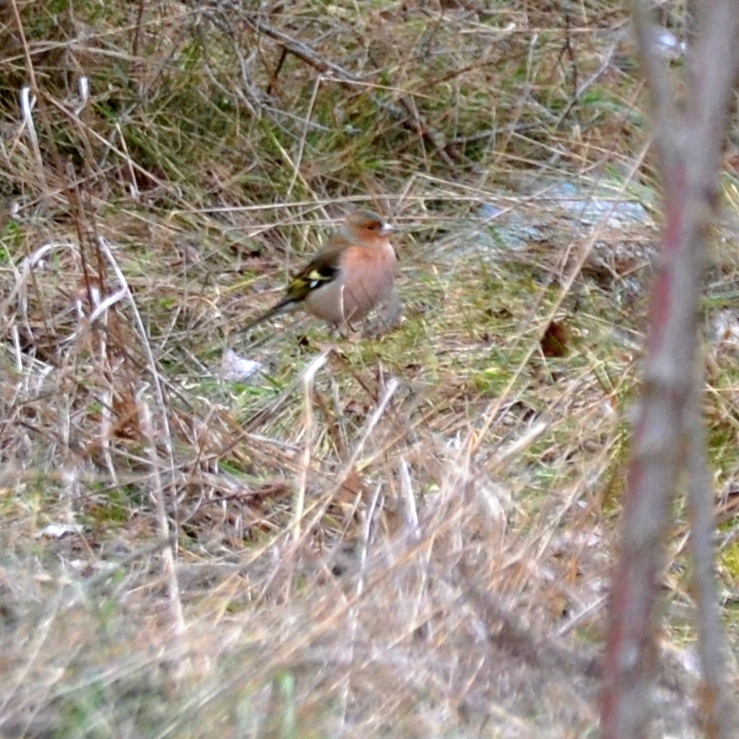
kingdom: Animalia
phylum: Chordata
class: Aves
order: Passeriformes
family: Fringillidae
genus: Fringilla
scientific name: Fringilla coelebs
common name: Common chaffinch
